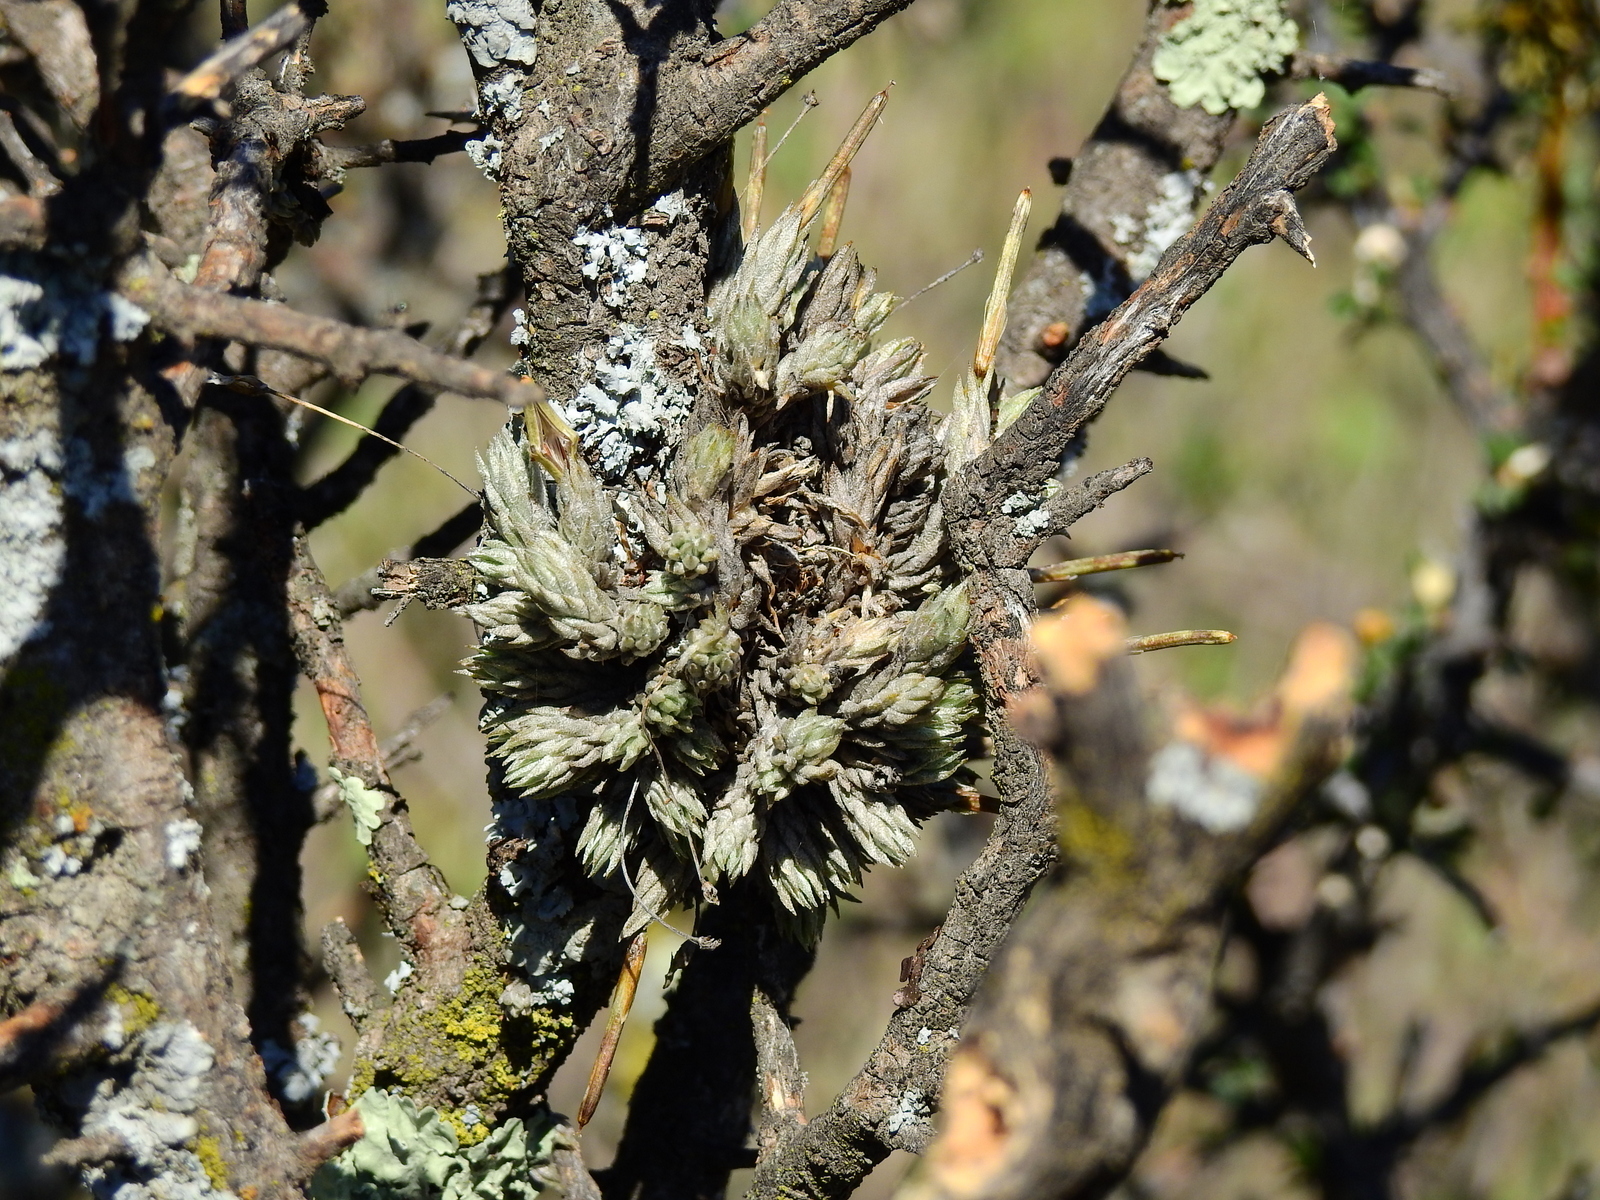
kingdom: Plantae
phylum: Tracheophyta
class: Liliopsida
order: Poales
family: Bromeliaceae
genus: Tillandsia
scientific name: Tillandsia pedicellata
